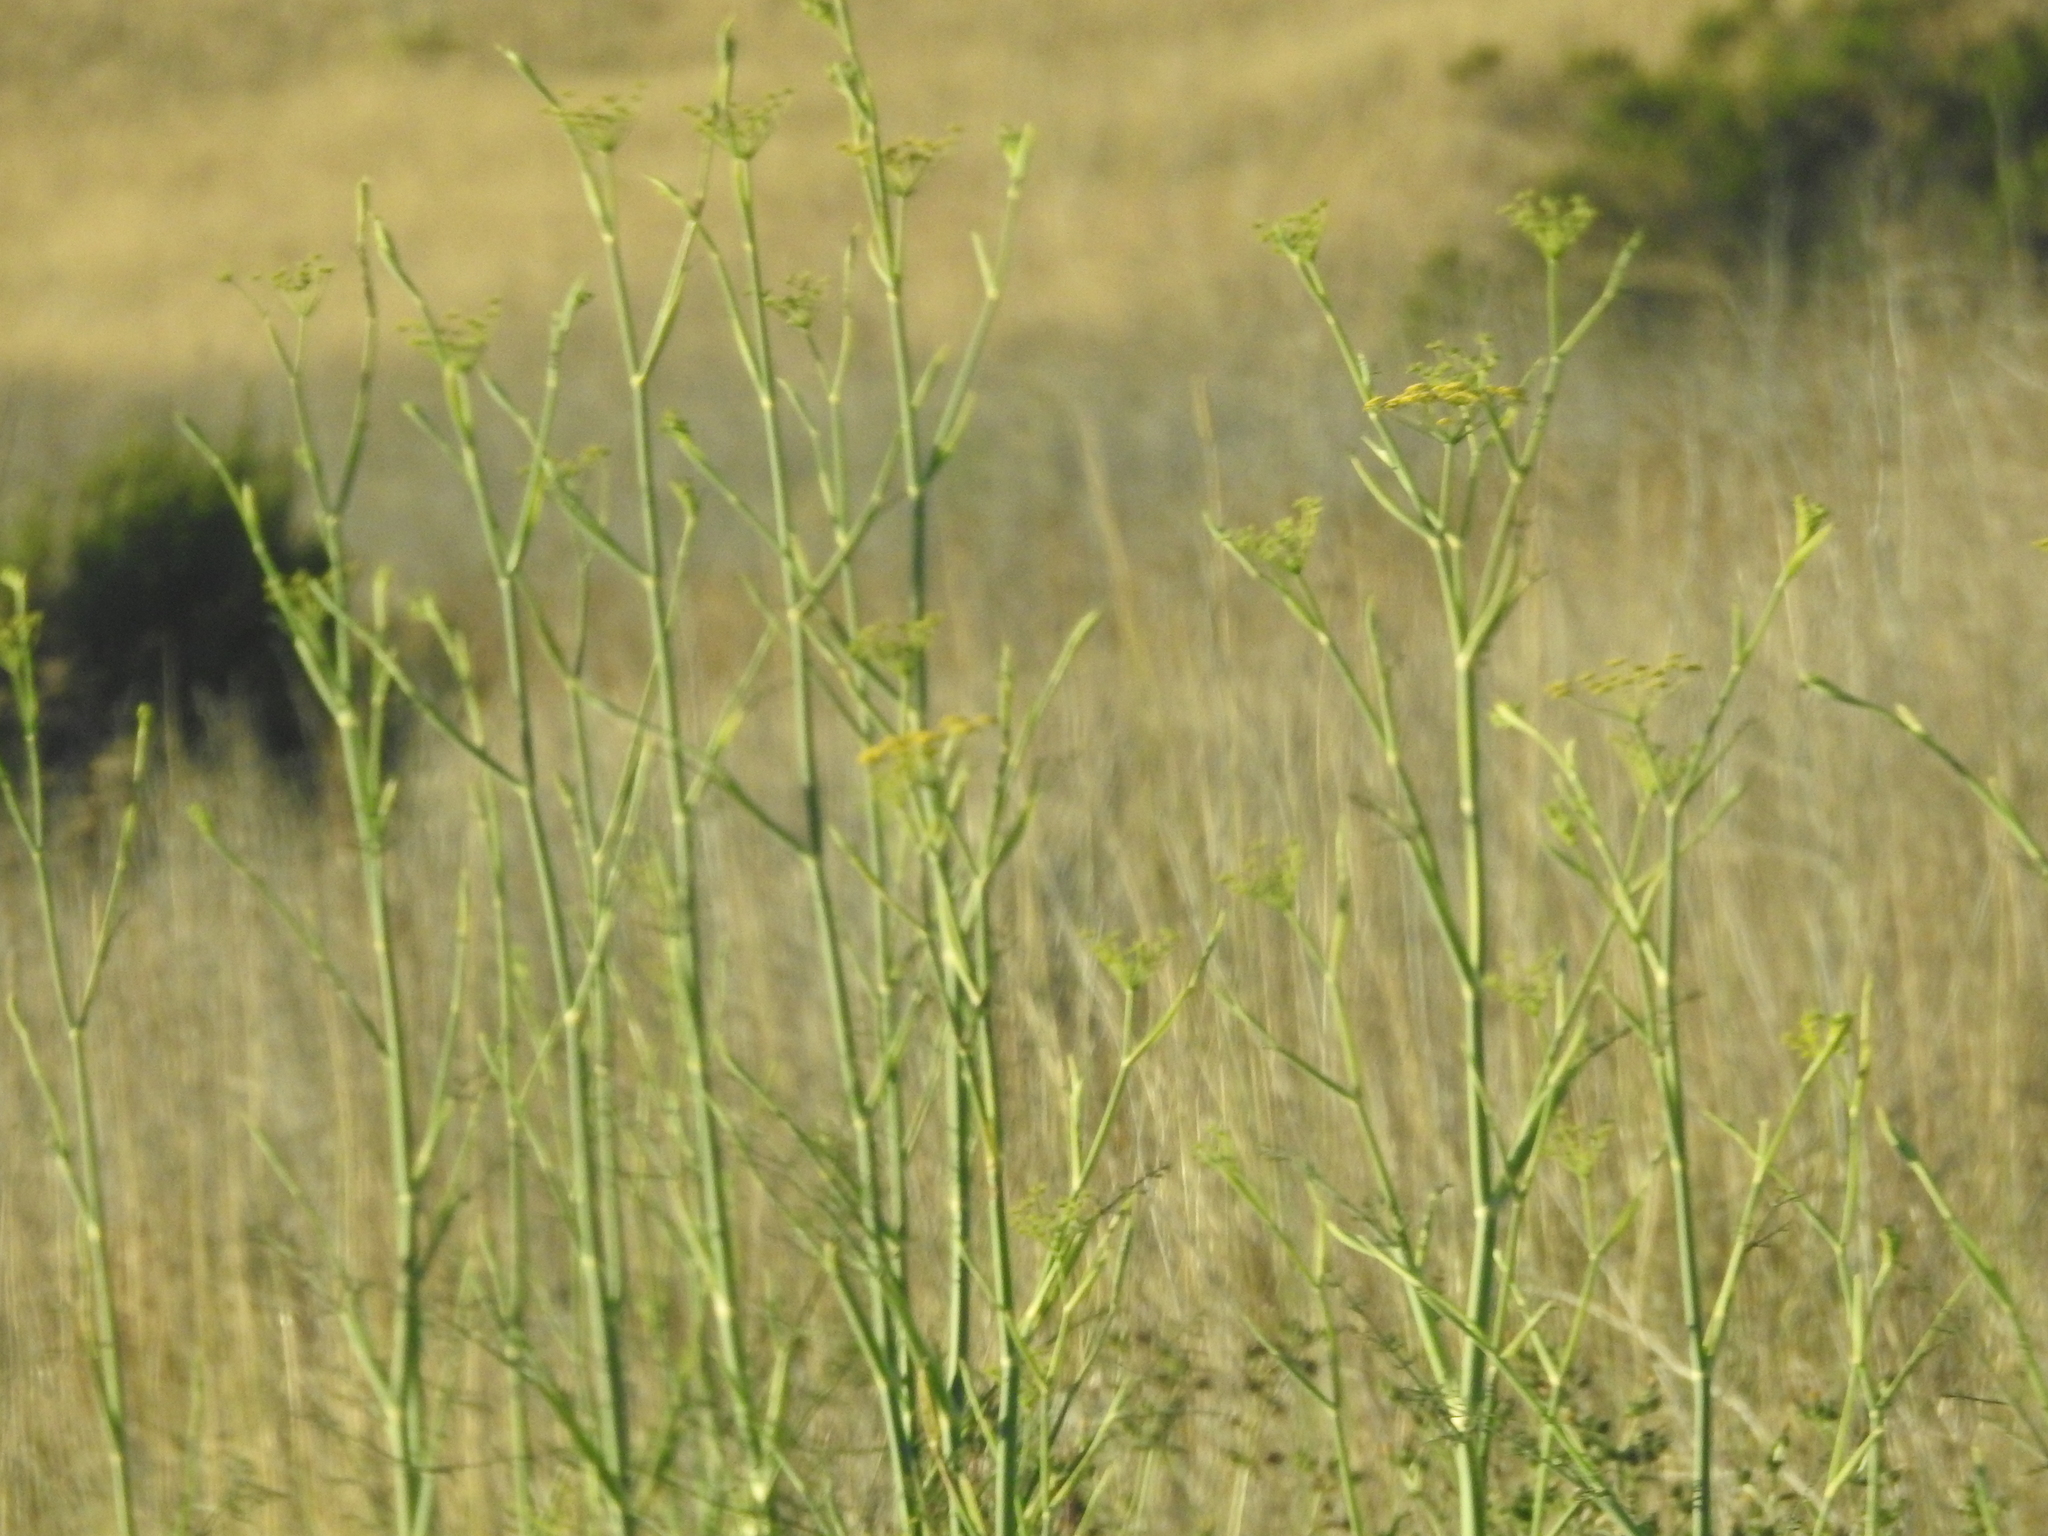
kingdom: Plantae
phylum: Tracheophyta
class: Magnoliopsida
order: Apiales
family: Apiaceae
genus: Foeniculum
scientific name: Foeniculum vulgare
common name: Fennel
